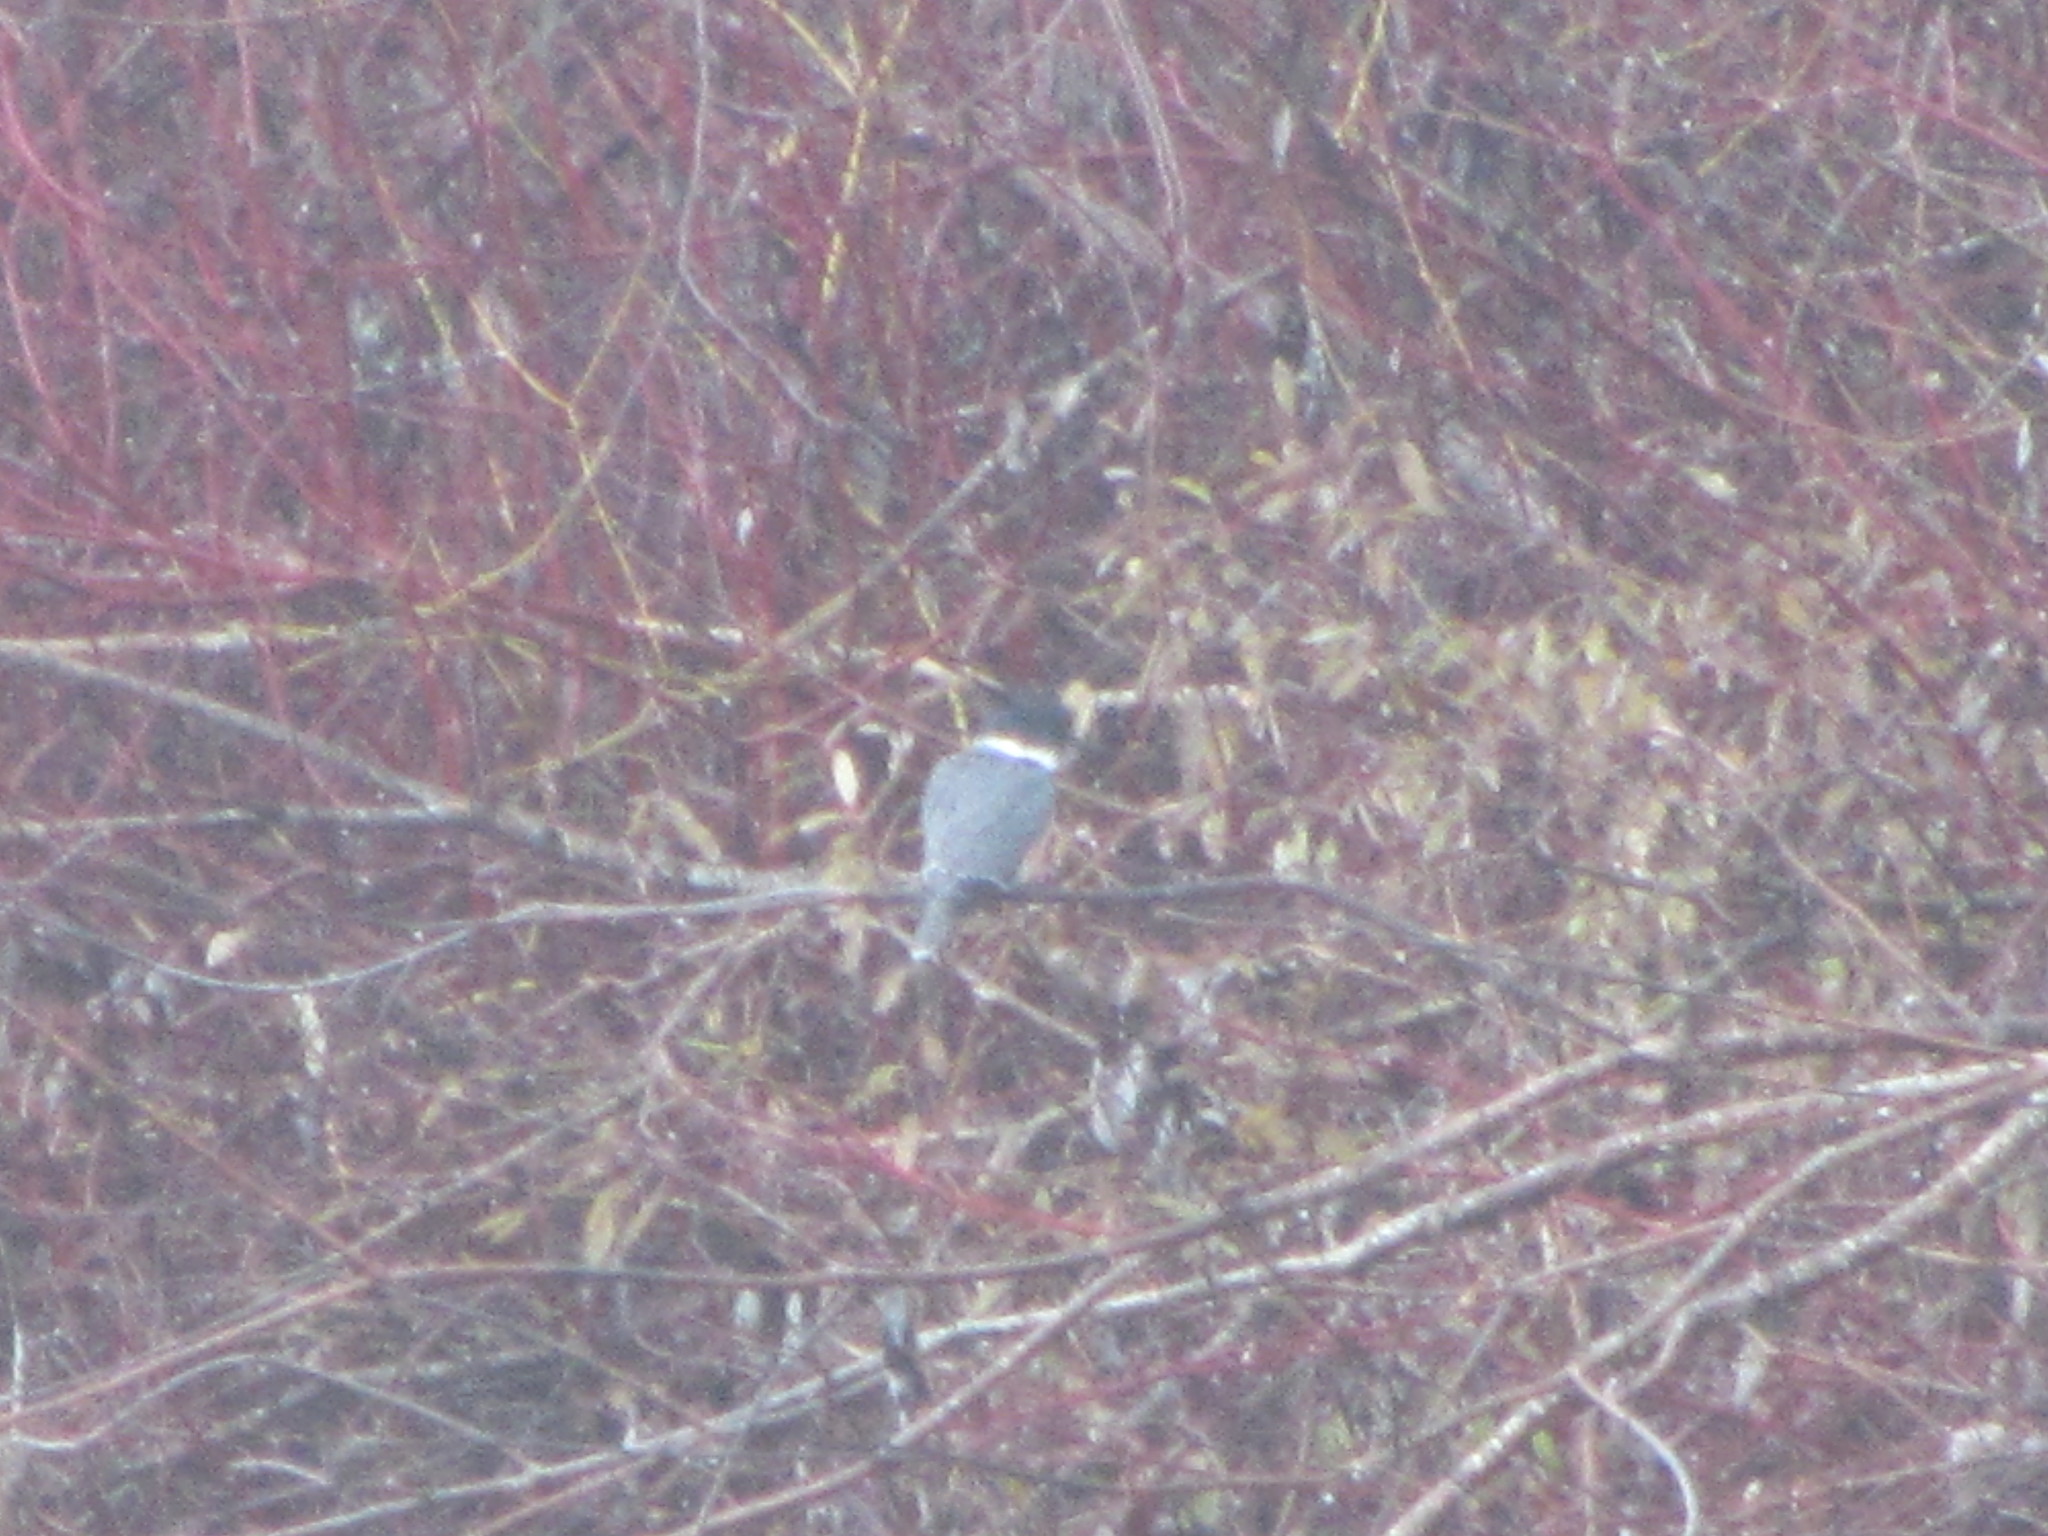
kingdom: Animalia
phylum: Chordata
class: Aves
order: Coraciiformes
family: Alcedinidae
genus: Megaceryle
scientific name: Megaceryle alcyon
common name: Belted kingfisher
